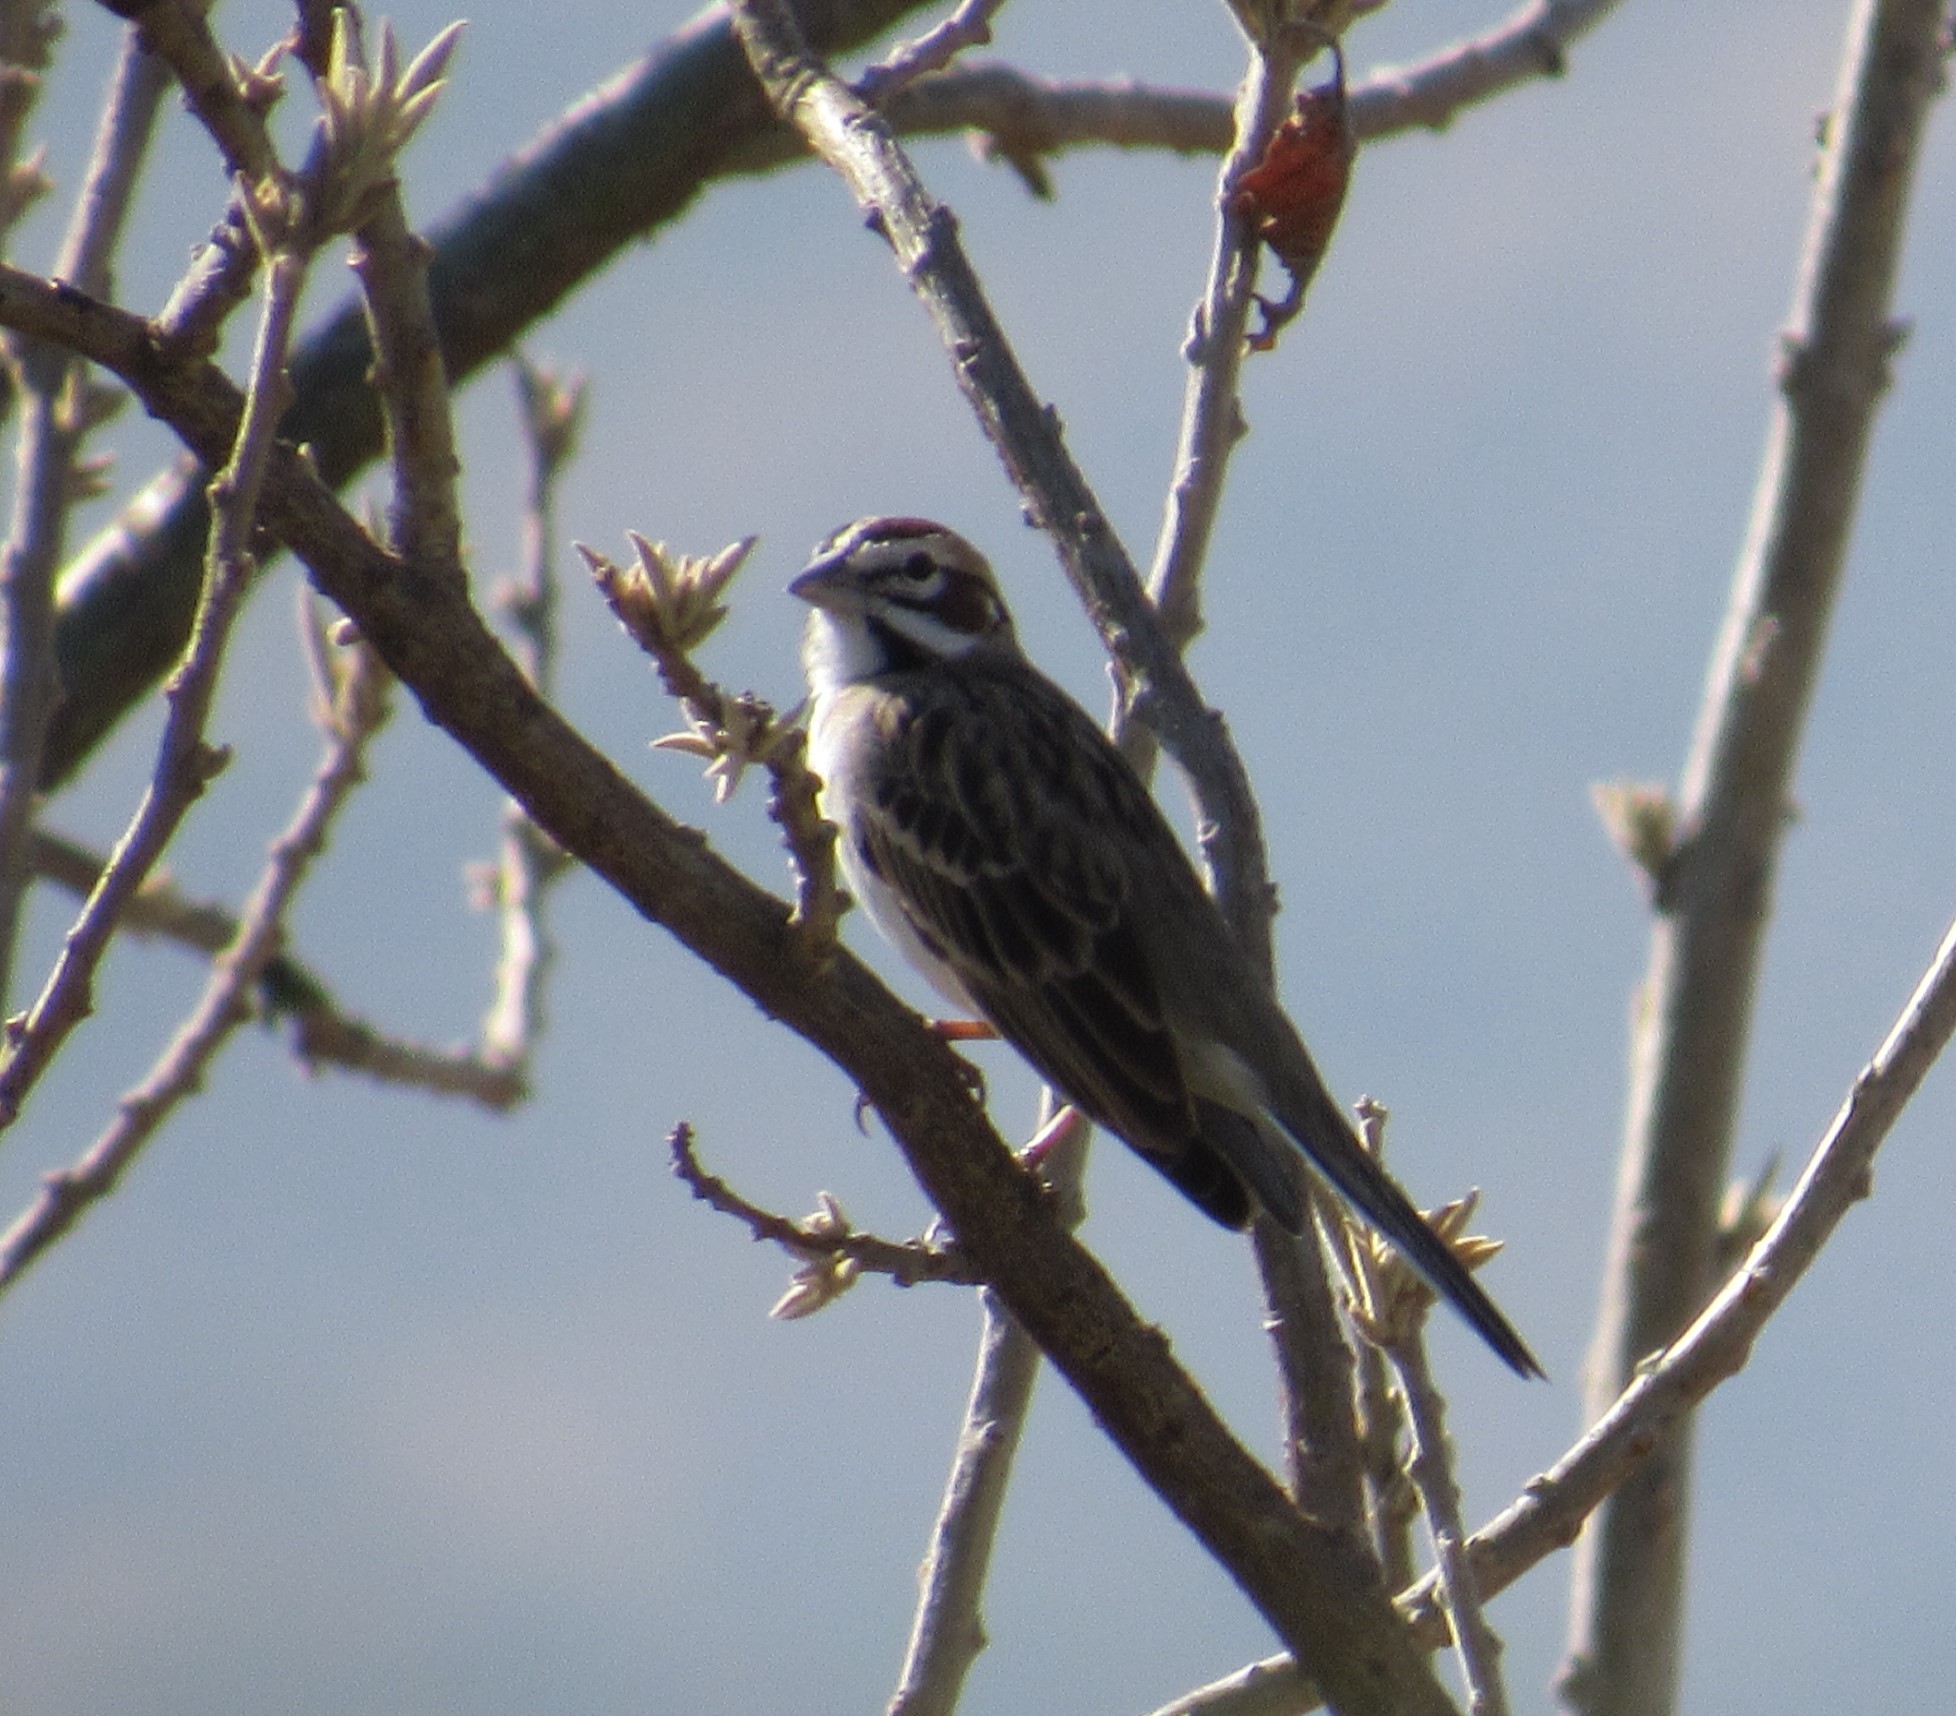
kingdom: Animalia
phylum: Chordata
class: Aves
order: Passeriformes
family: Passerellidae
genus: Chondestes
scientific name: Chondestes grammacus
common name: Lark sparrow
